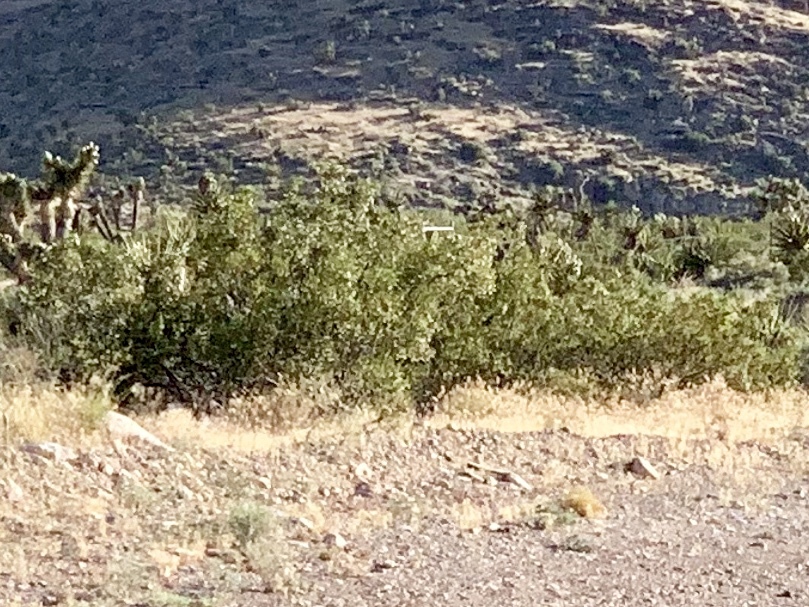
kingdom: Plantae
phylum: Tracheophyta
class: Magnoliopsida
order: Zygophyllales
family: Zygophyllaceae
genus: Larrea
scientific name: Larrea tridentata
